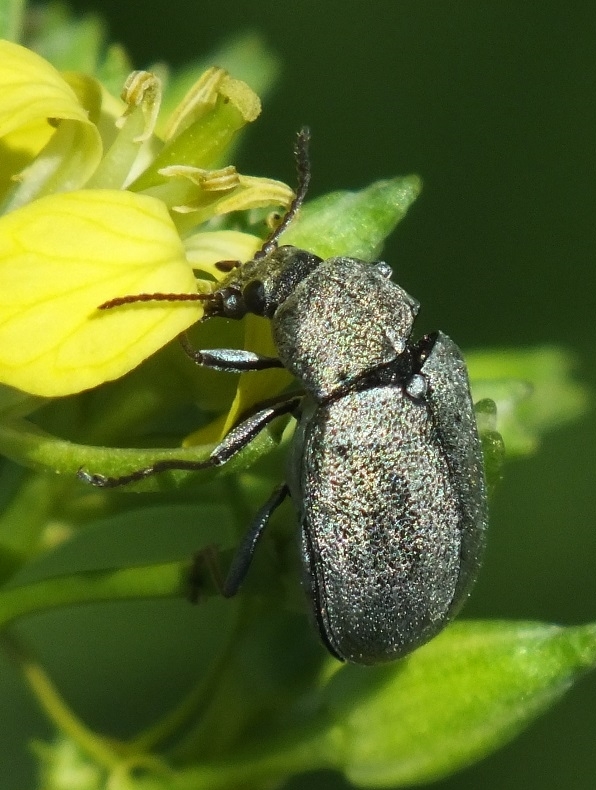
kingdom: Animalia
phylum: Arthropoda
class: Insecta
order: Coleoptera
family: Mycteridae
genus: Mycterus
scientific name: Mycterus tibialis
